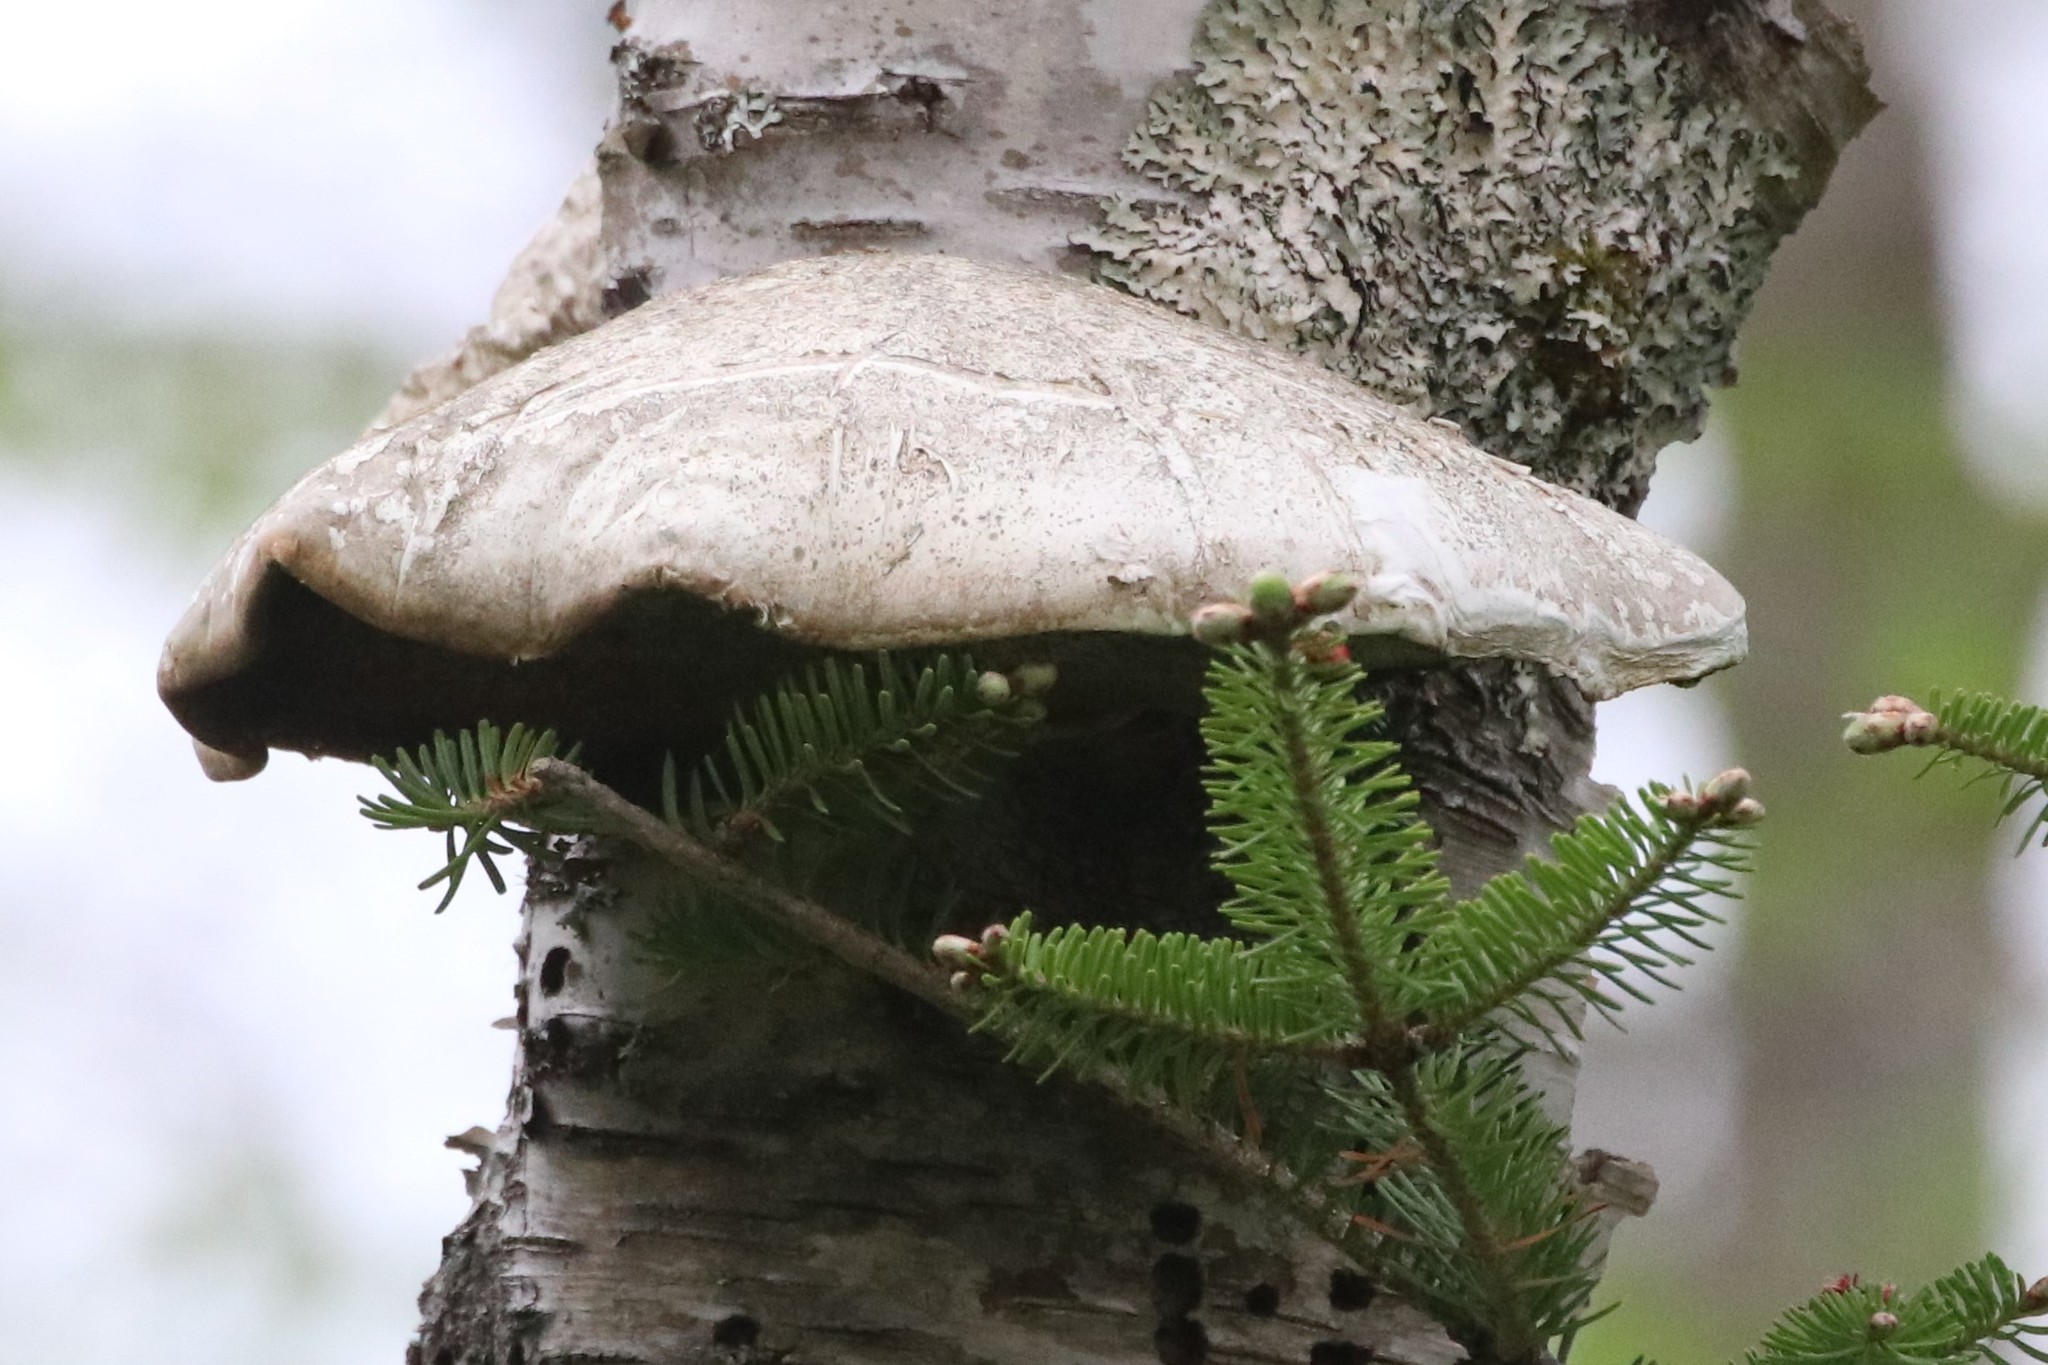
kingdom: Fungi
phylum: Basidiomycota
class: Agaricomycetes
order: Polyporales
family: Fomitopsidaceae
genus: Fomitopsis
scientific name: Fomitopsis betulina
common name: Birch polypore
